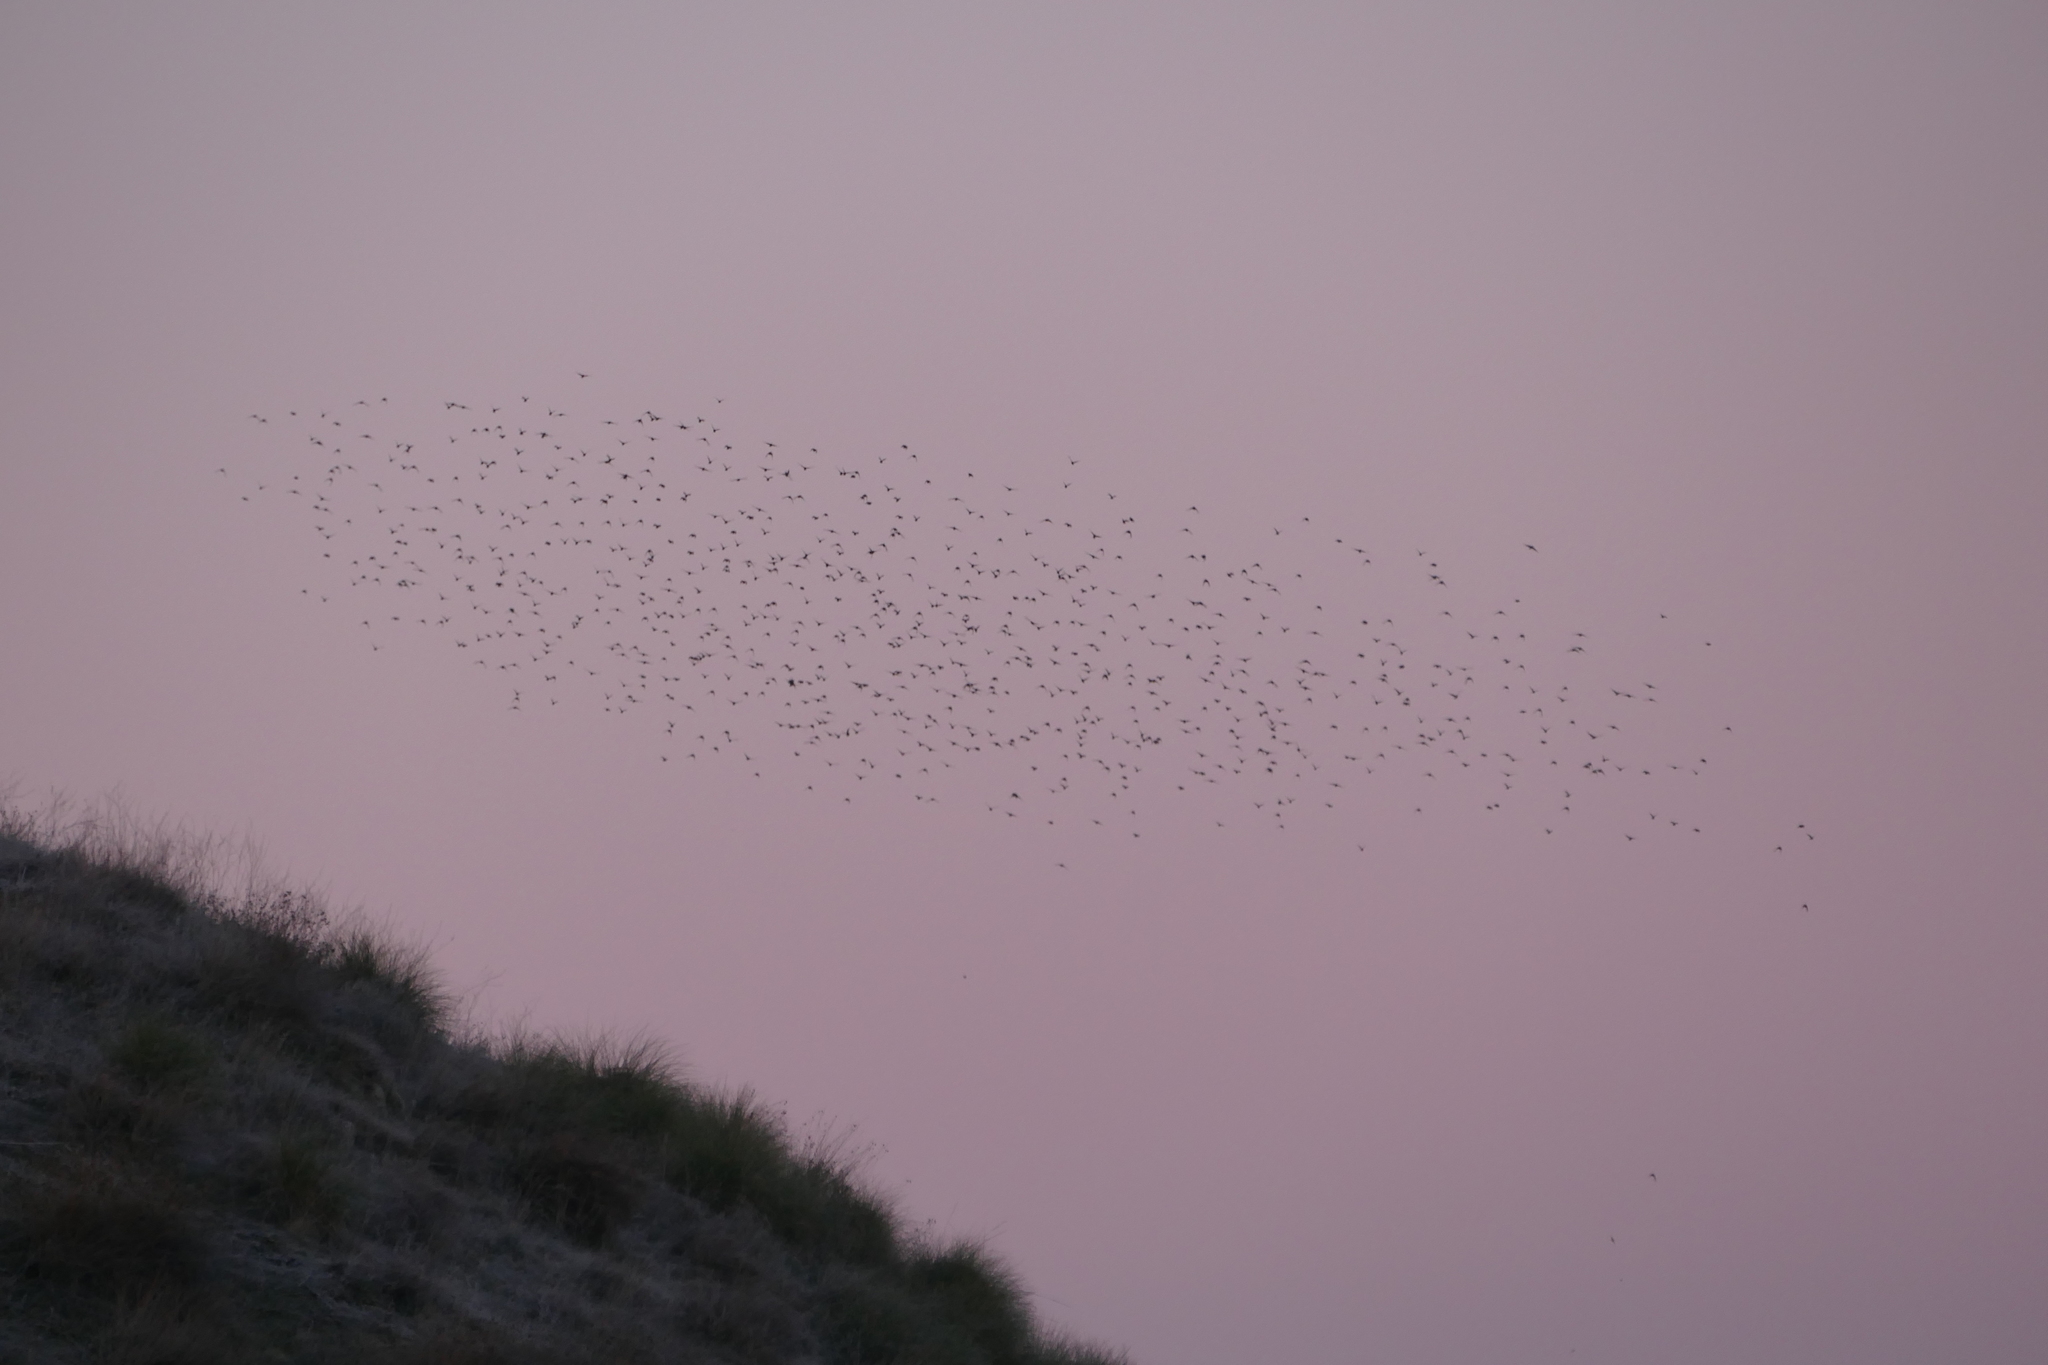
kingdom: Animalia
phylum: Chordata
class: Aves
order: Passeriformes
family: Sturnidae
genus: Sturnus
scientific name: Sturnus unicolor
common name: Spotless starling
